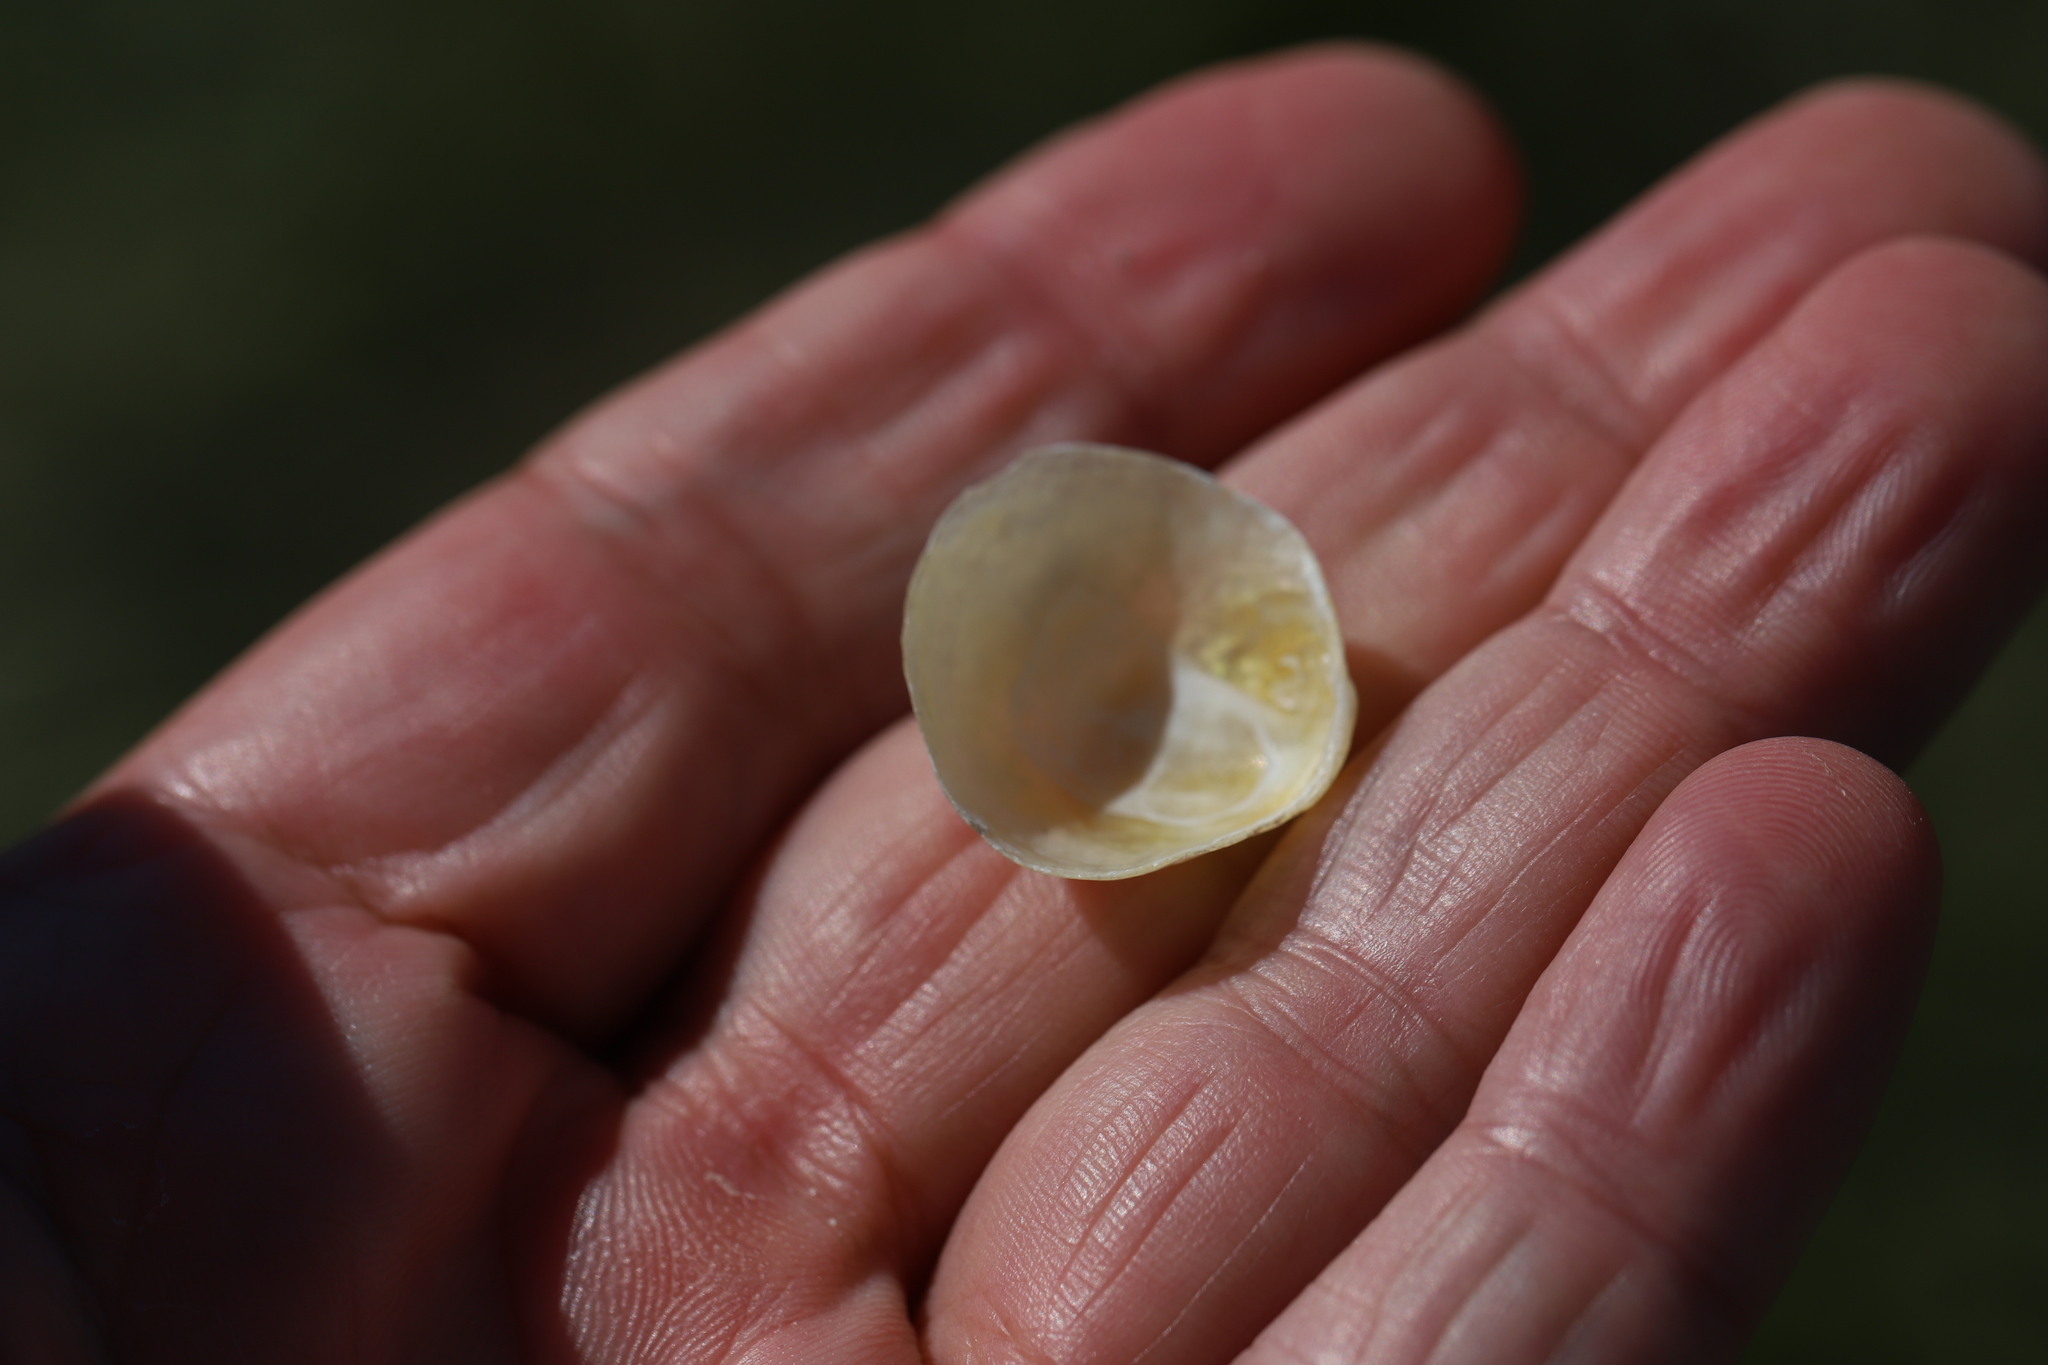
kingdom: Animalia
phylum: Mollusca
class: Bivalvia
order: Pectinida
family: Anomiidae
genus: Anomia
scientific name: Anomia simplex
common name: Common jingle shell
